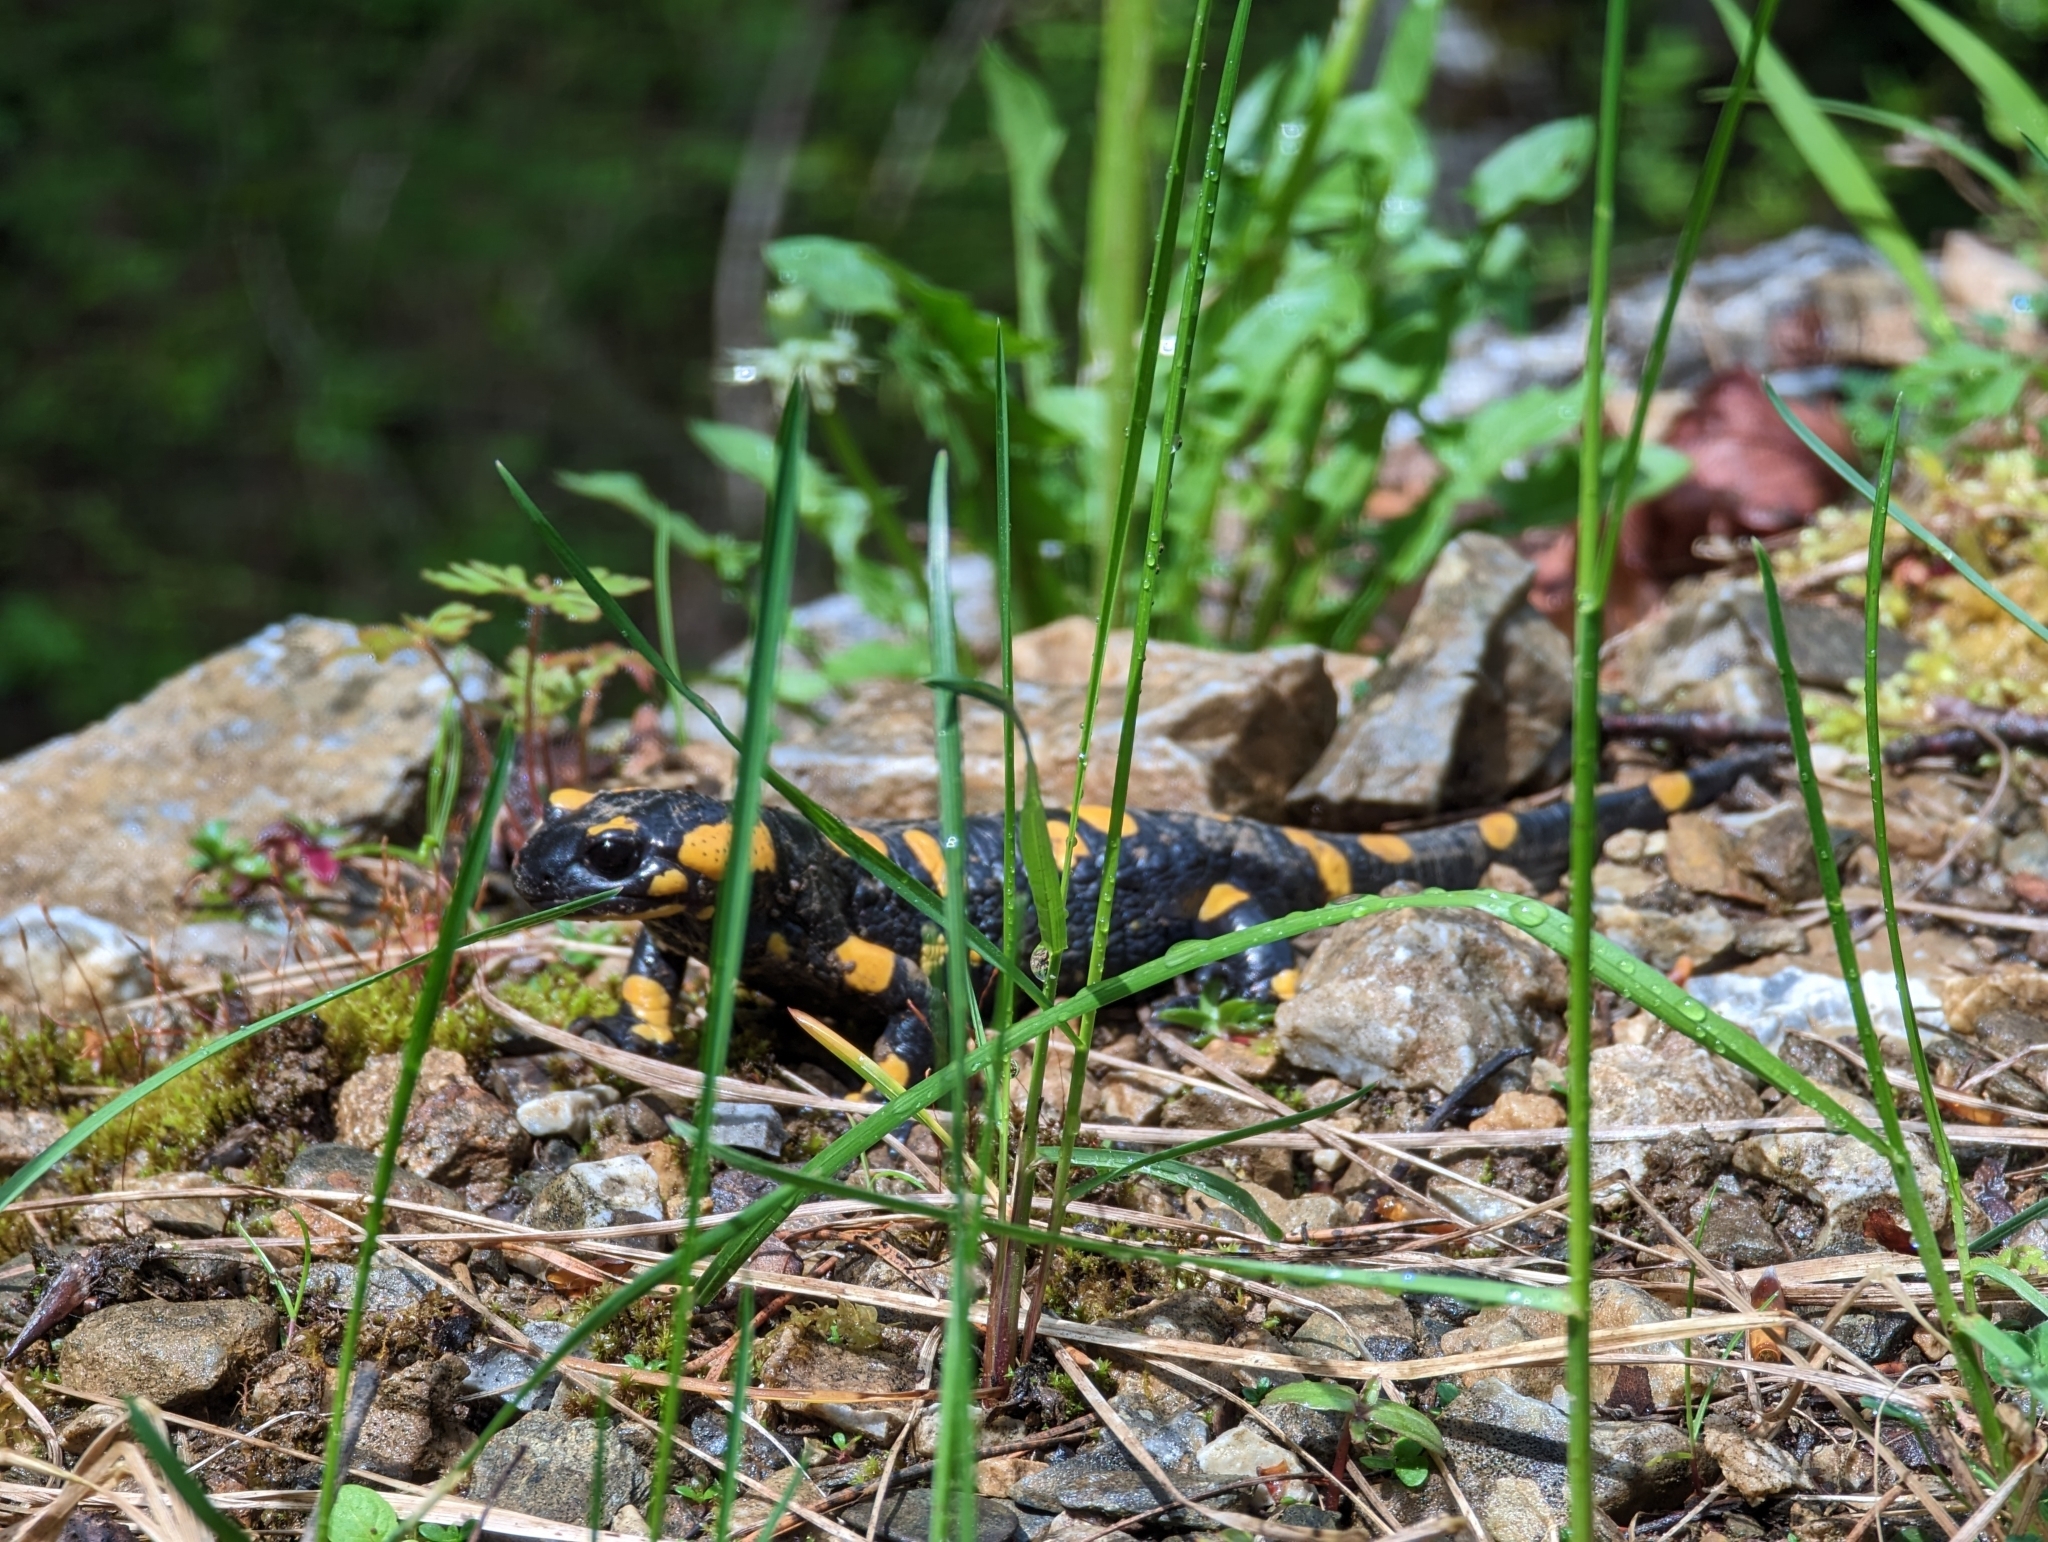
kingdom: Animalia
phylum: Chordata
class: Amphibia
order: Caudata
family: Salamandridae
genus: Salamandra
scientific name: Salamandra salamandra
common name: Fire salamander
